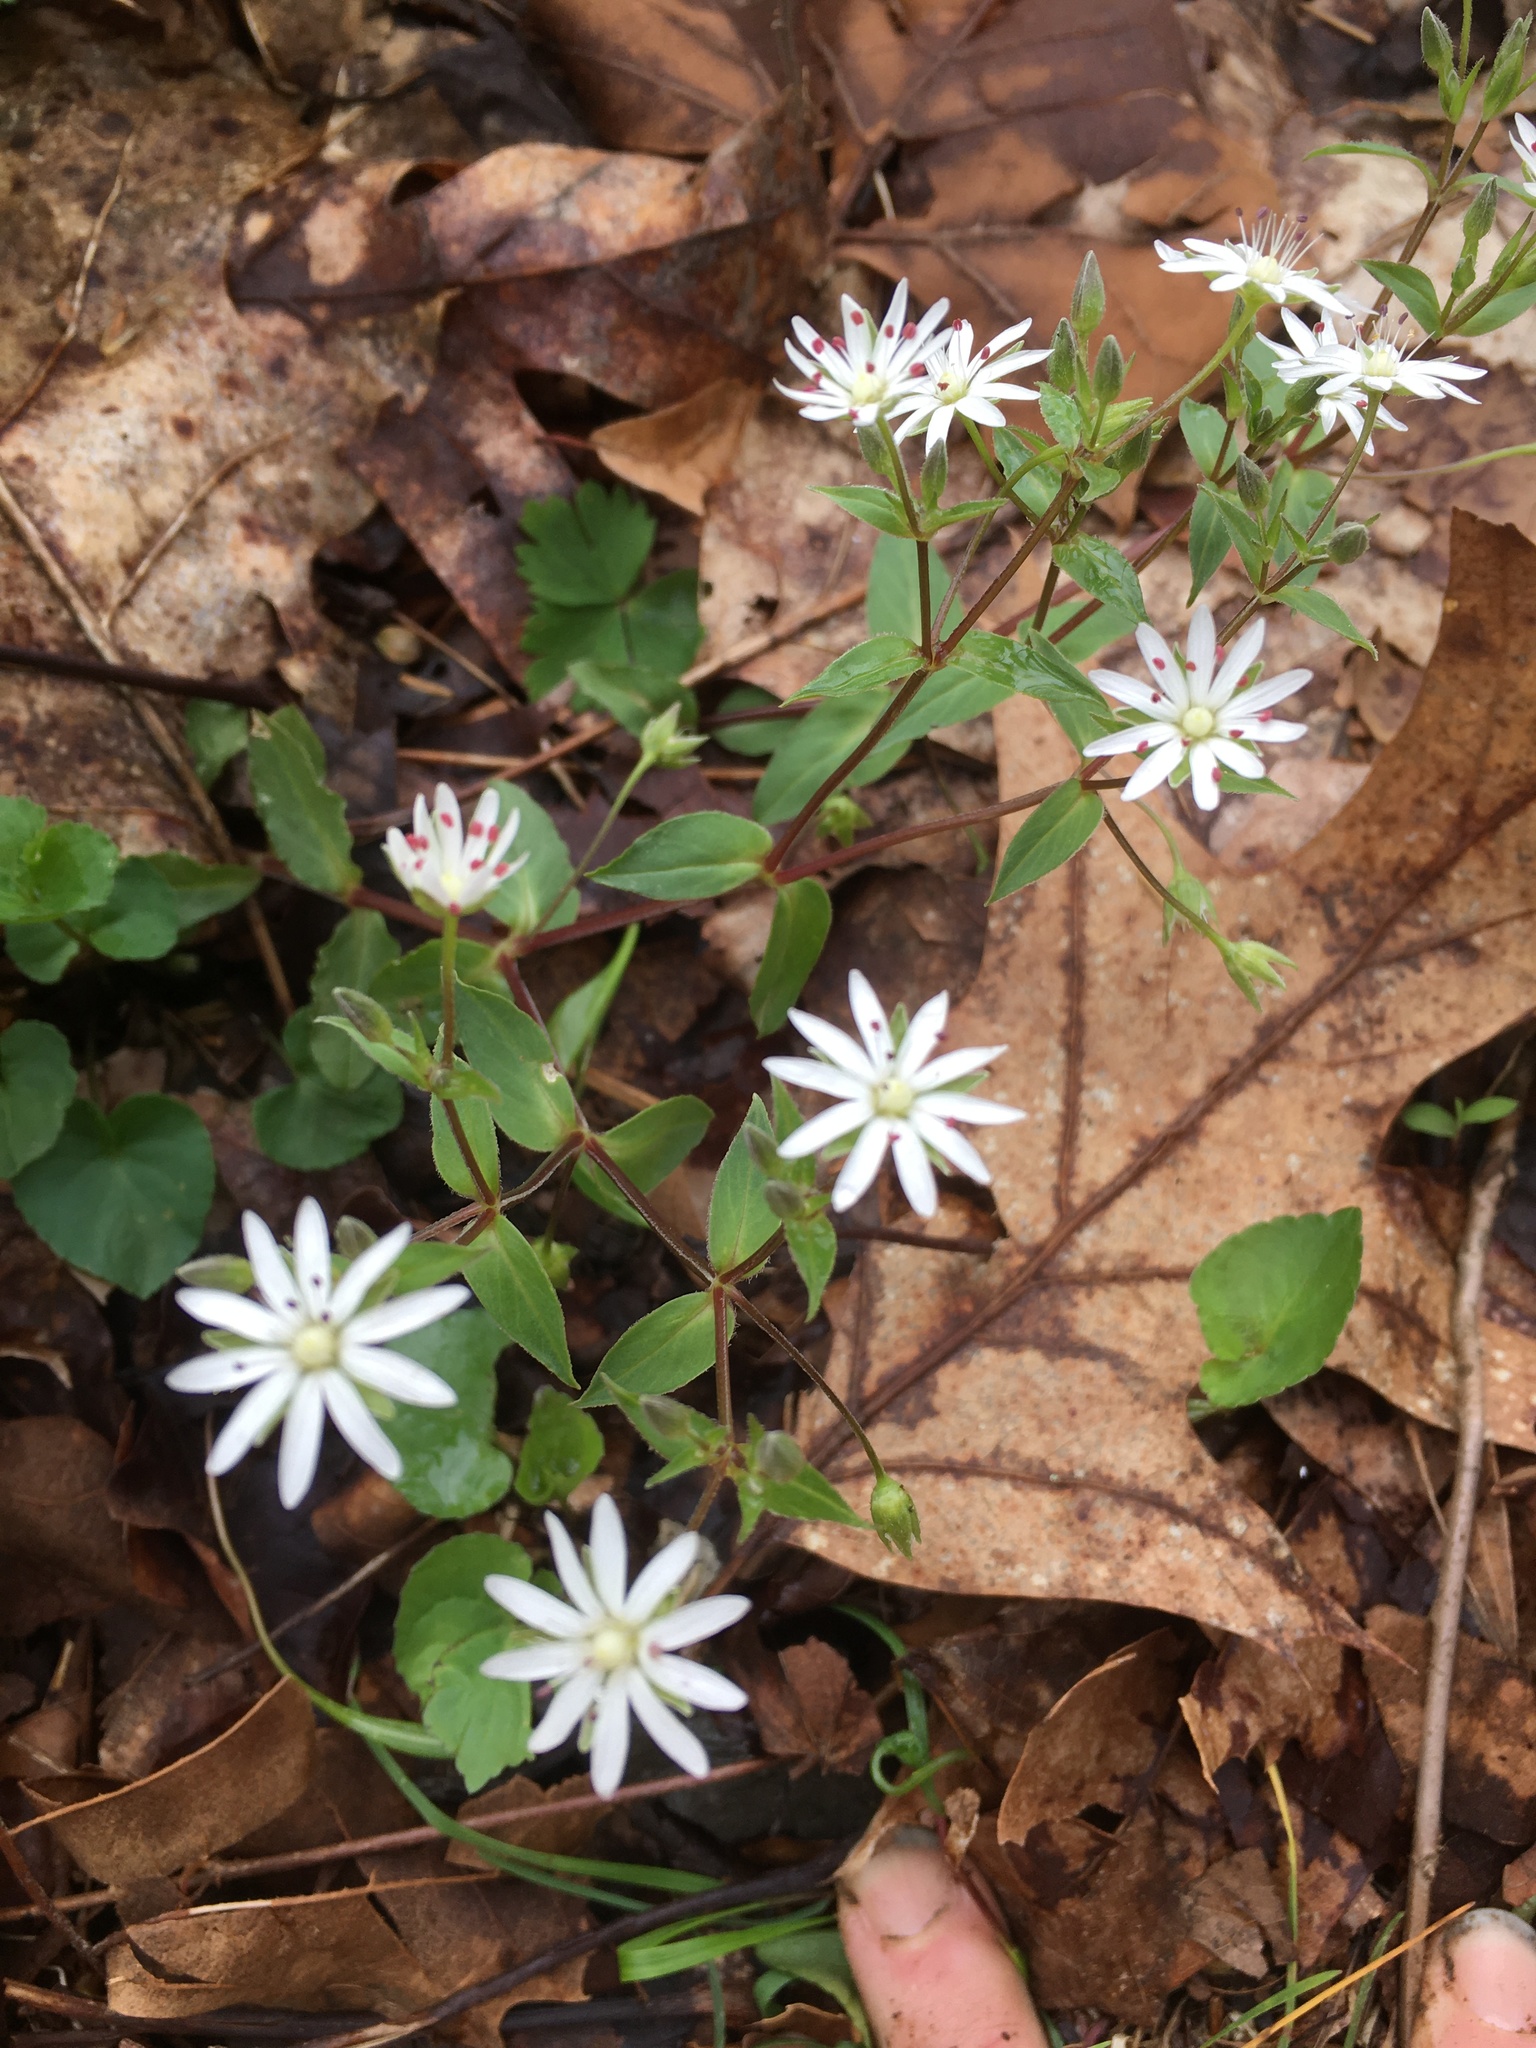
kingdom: Plantae
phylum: Tracheophyta
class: Magnoliopsida
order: Caryophyllales
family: Caryophyllaceae
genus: Stellaria
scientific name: Stellaria pubera
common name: Star chickweed
